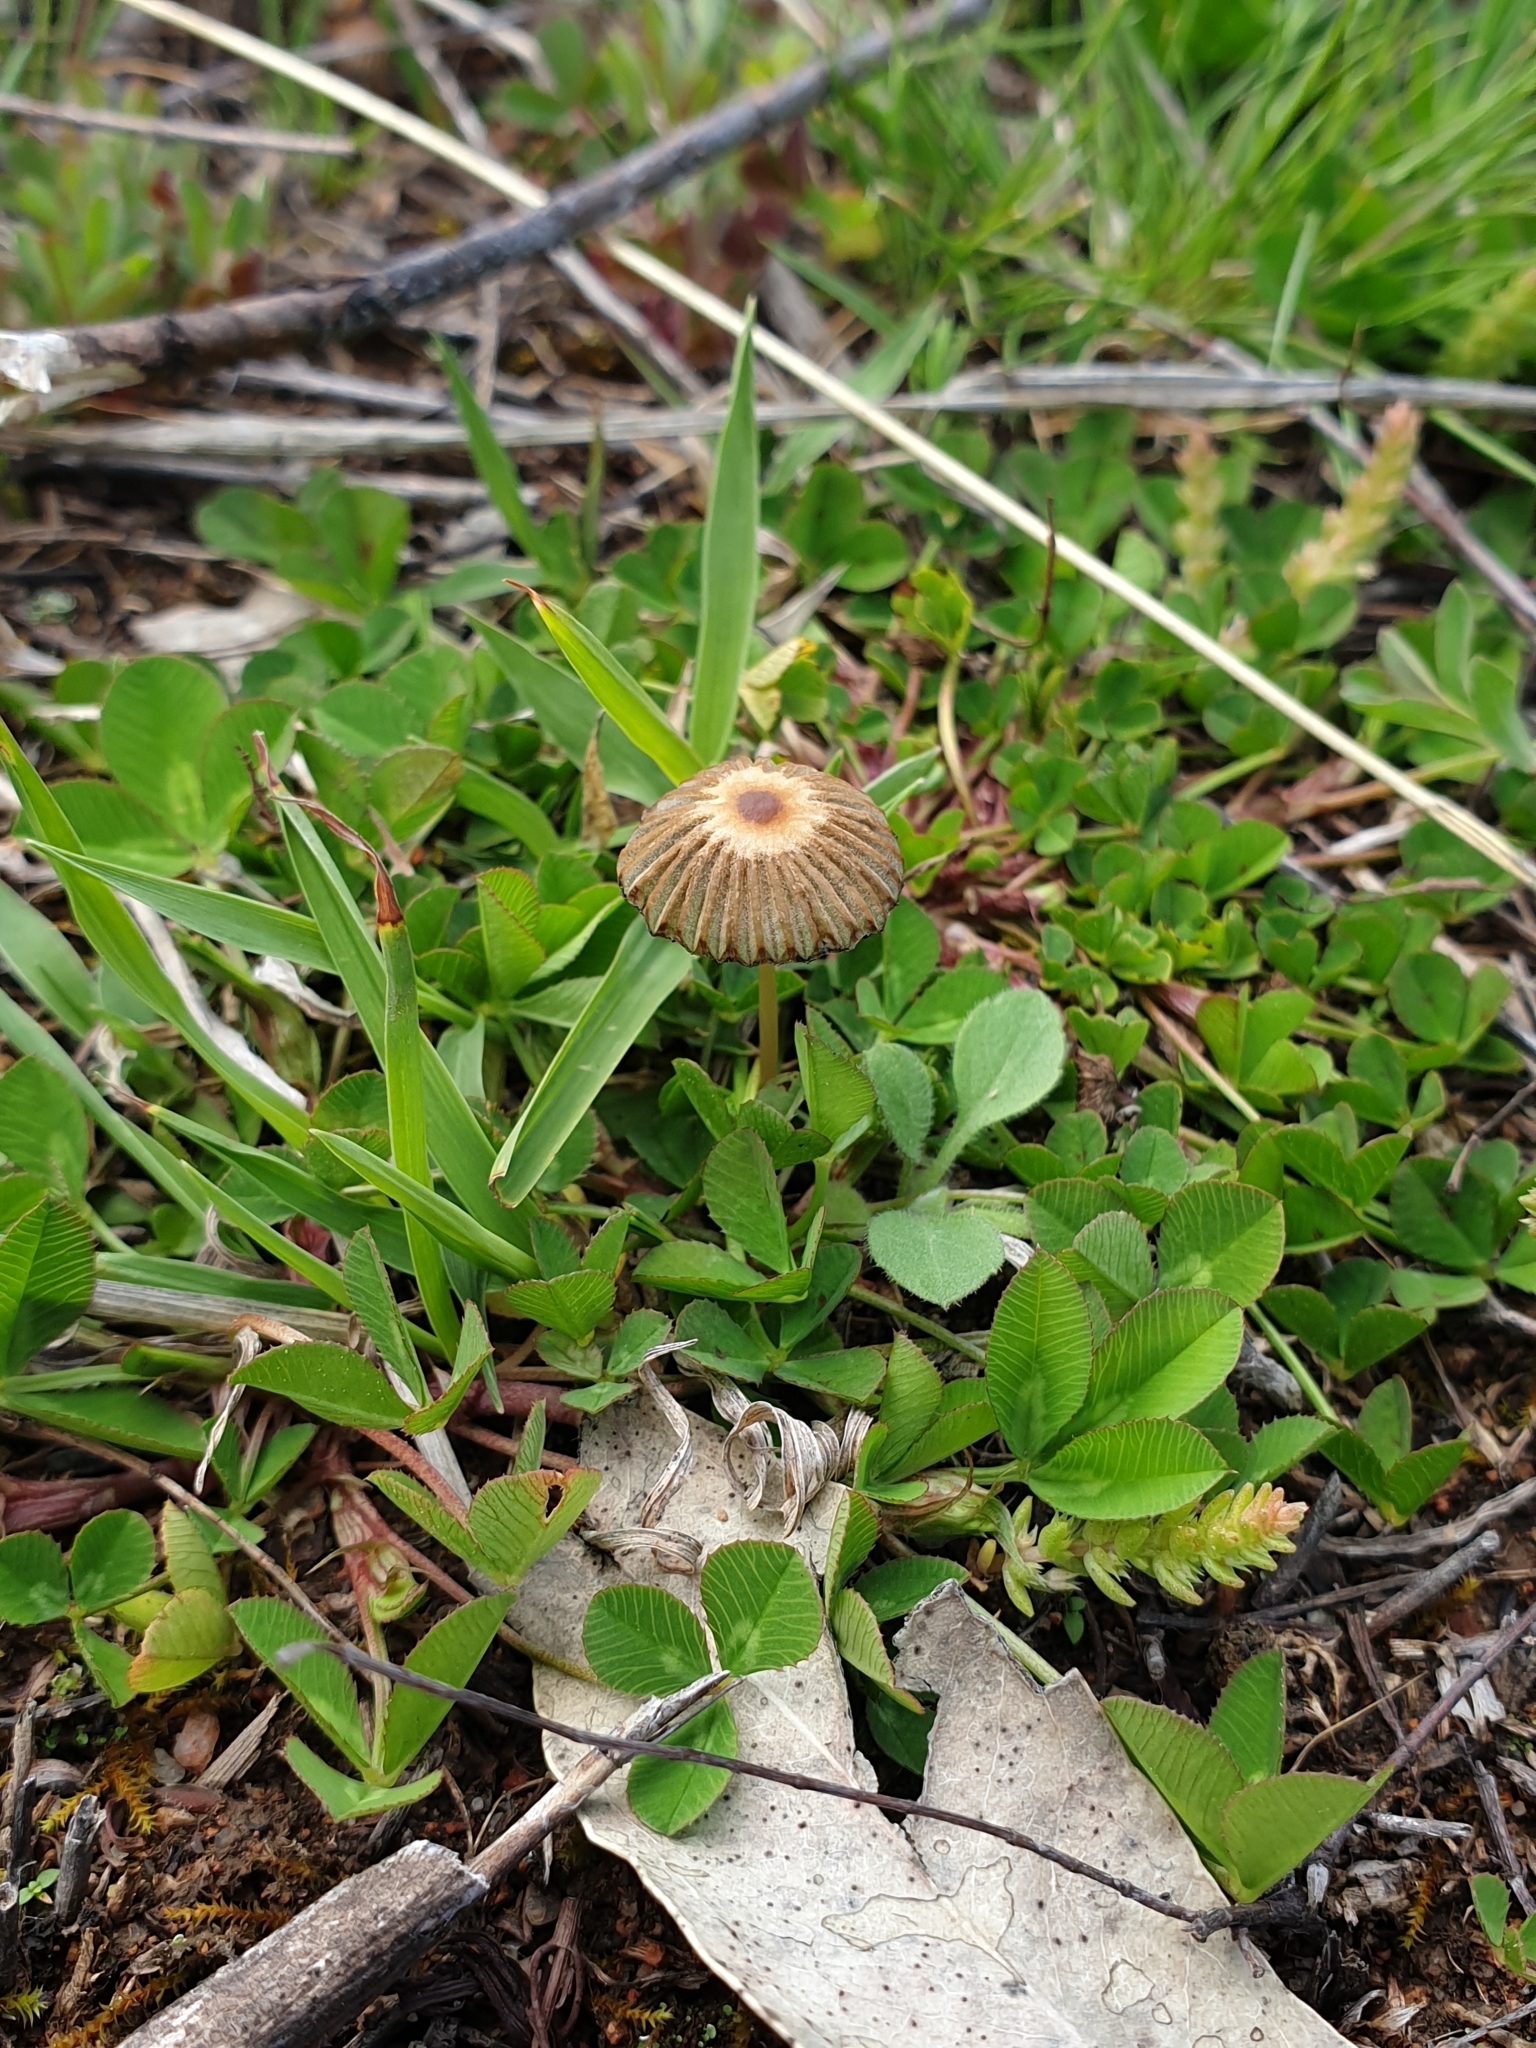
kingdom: Fungi
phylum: Basidiomycota
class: Agaricomycetes
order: Agaricales
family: Psathyrellaceae
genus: Parasola
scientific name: Parasola auricoma
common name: Goldenhaired inkcap
